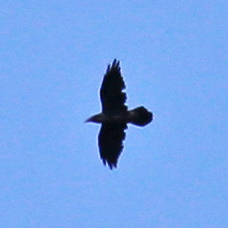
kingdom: Animalia
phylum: Chordata
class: Aves
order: Passeriformes
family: Corvidae
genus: Corvus
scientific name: Corvus corax
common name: Common raven
